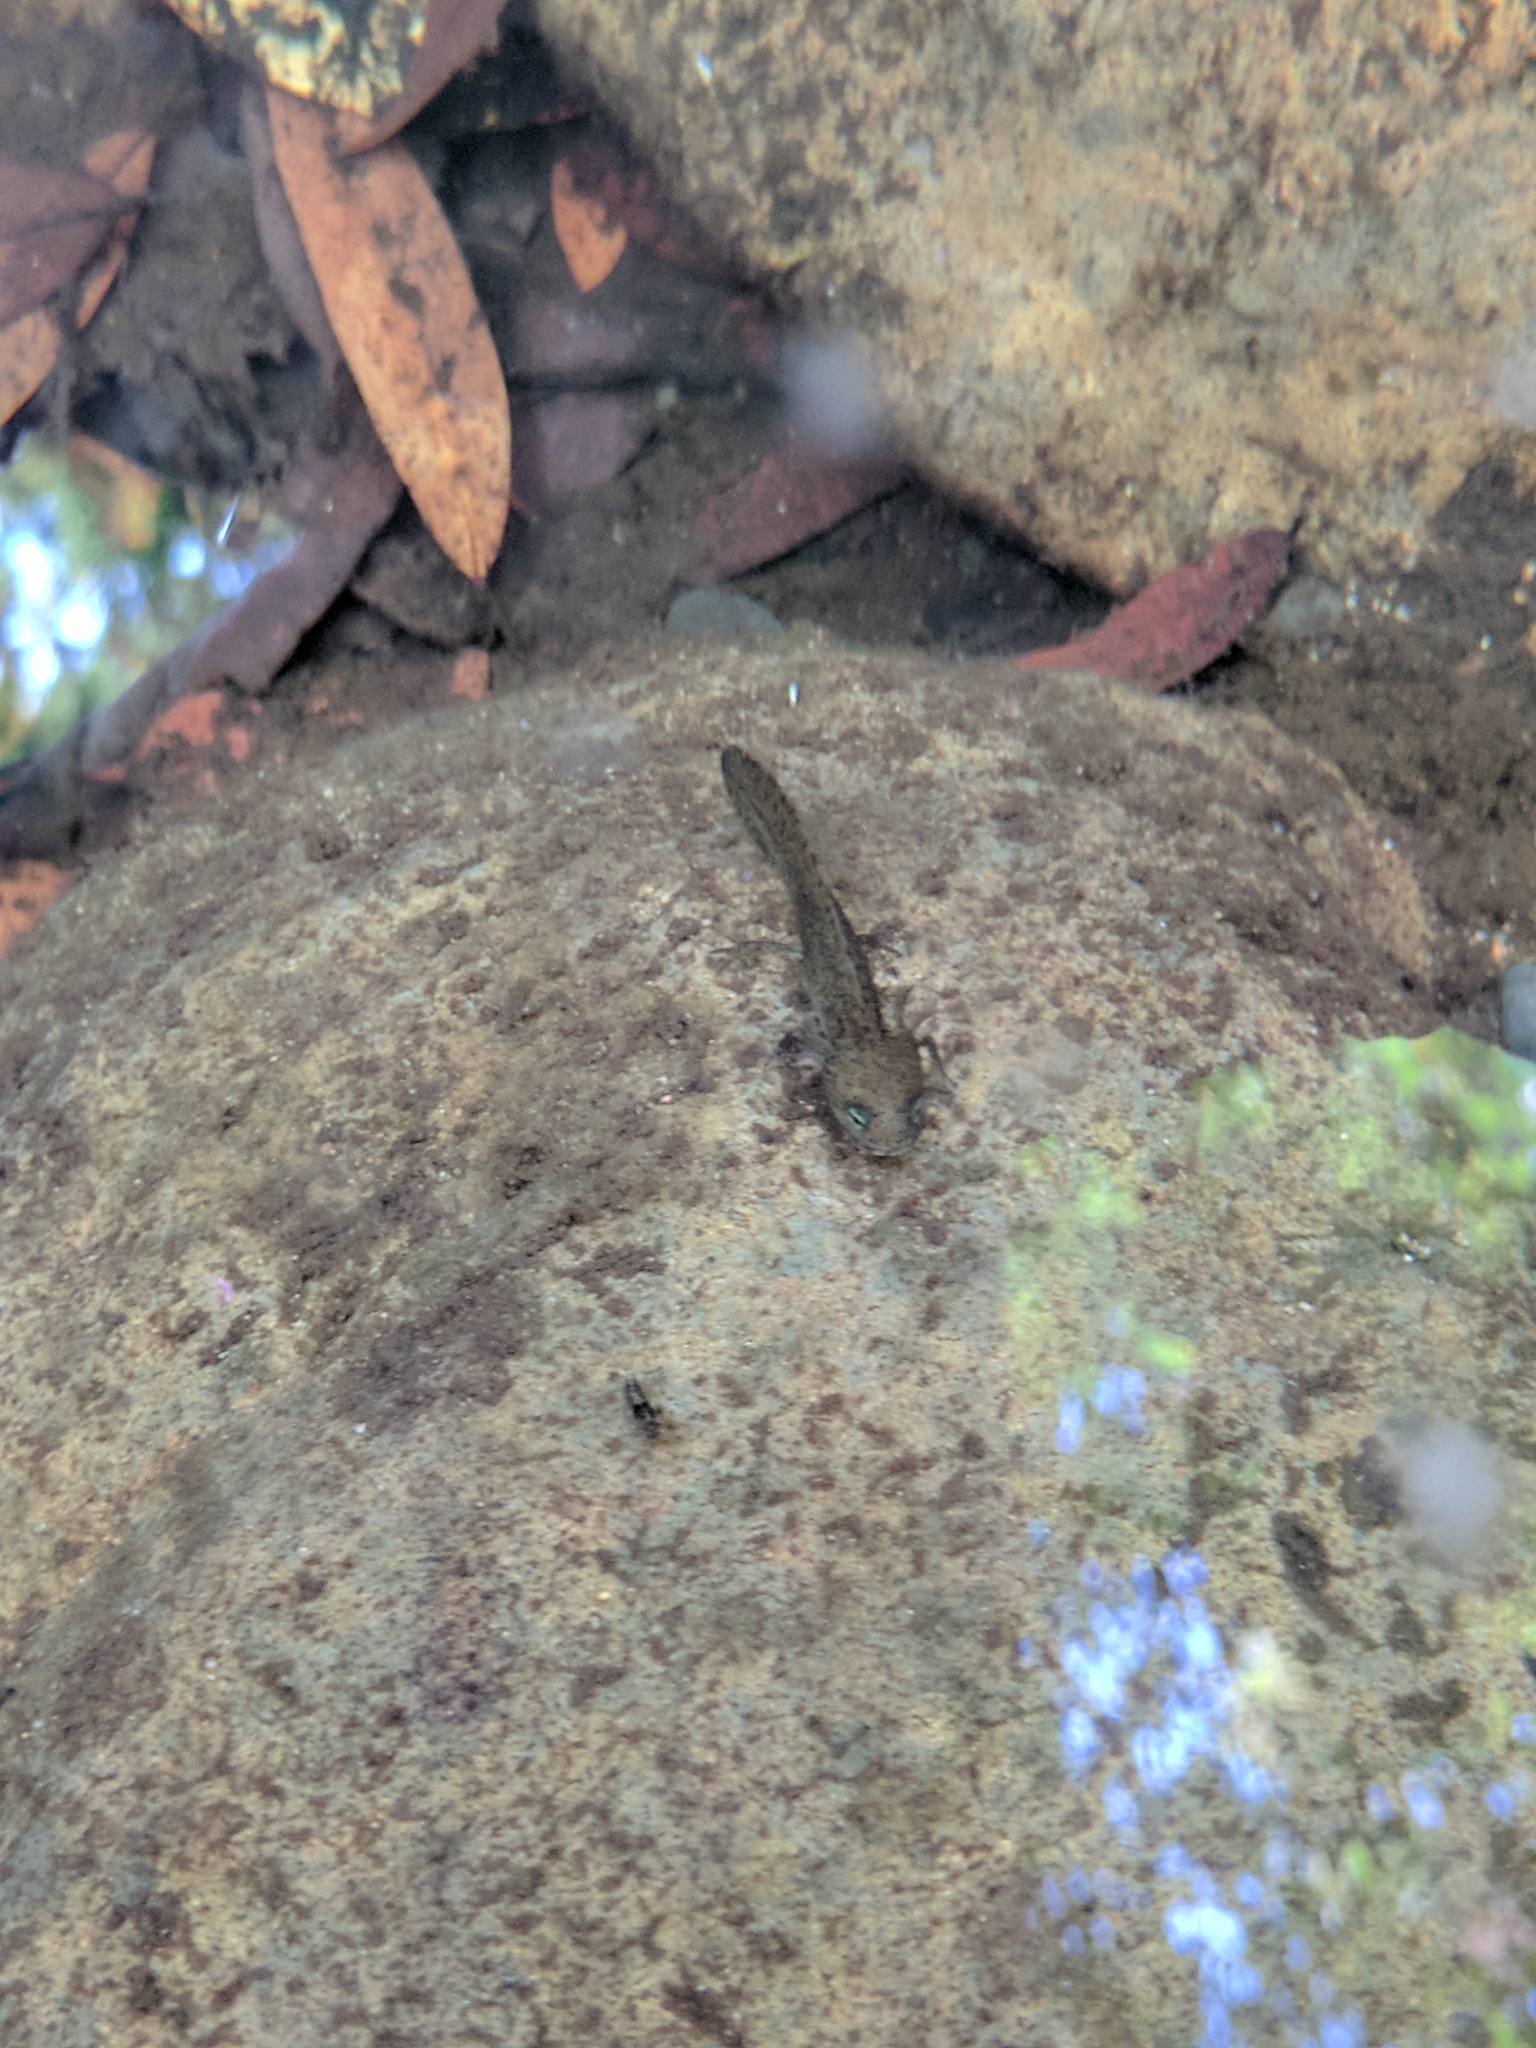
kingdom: Animalia
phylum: Chordata
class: Amphibia
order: Caudata
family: Salamandridae
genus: Taricha
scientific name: Taricha torosa
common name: California newt
